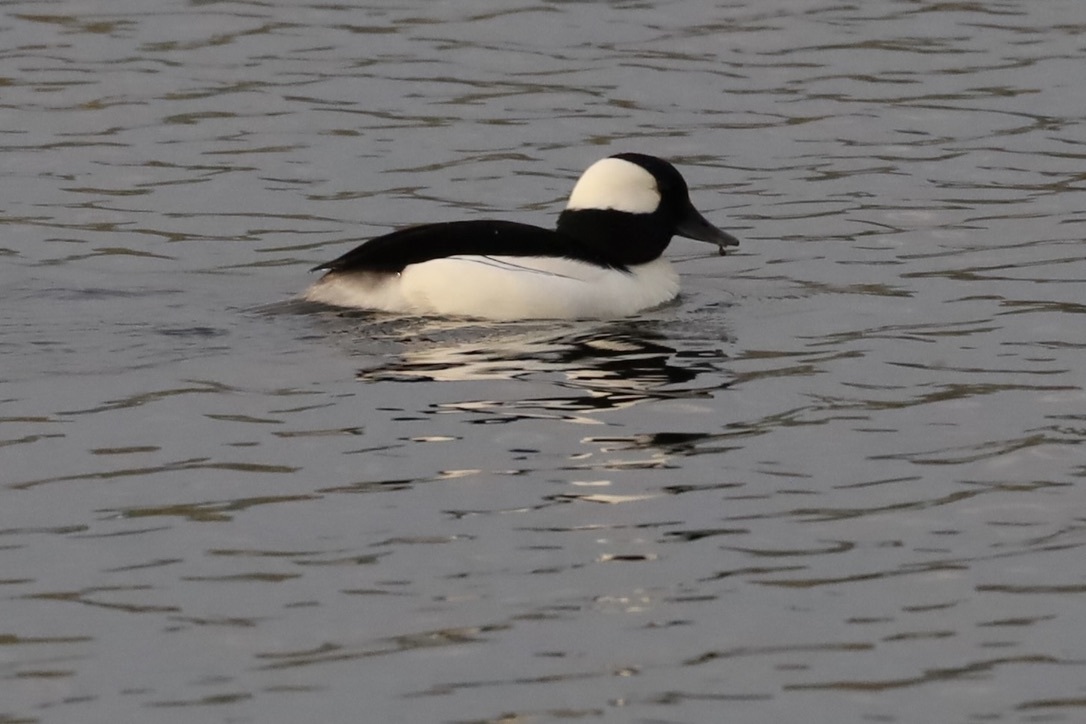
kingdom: Animalia
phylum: Chordata
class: Aves
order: Anseriformes
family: Anatidae
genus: Bucephala
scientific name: Bucephala albeola
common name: Bufflehead
